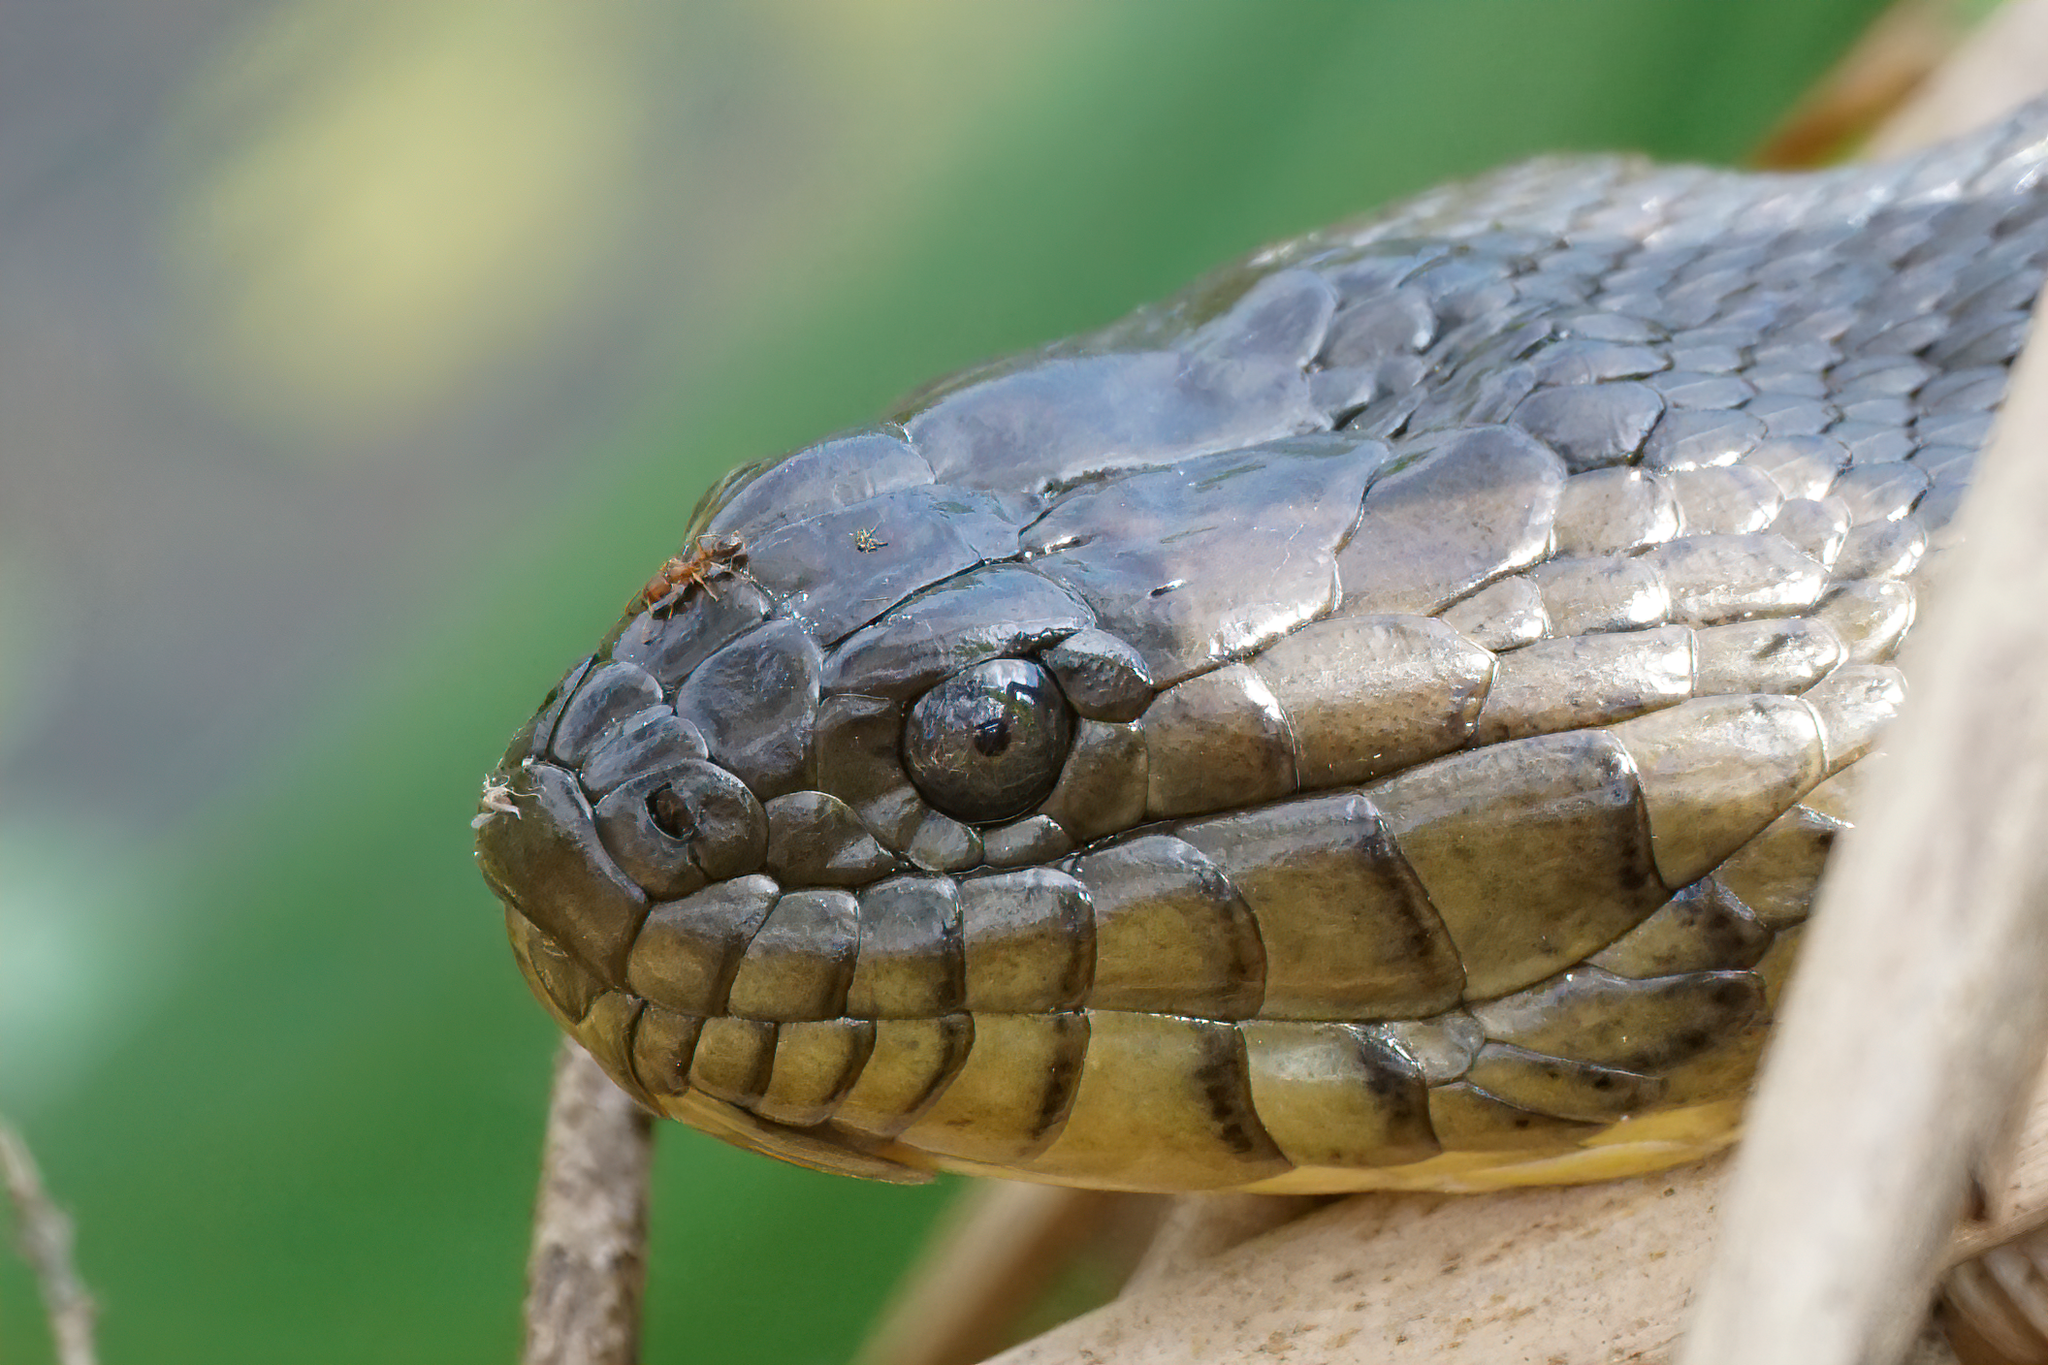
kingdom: Animalia
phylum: Chordata
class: Squamata
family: Colubridae
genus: Nerodia
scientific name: Nerodia floridana
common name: Florida green watersnake
